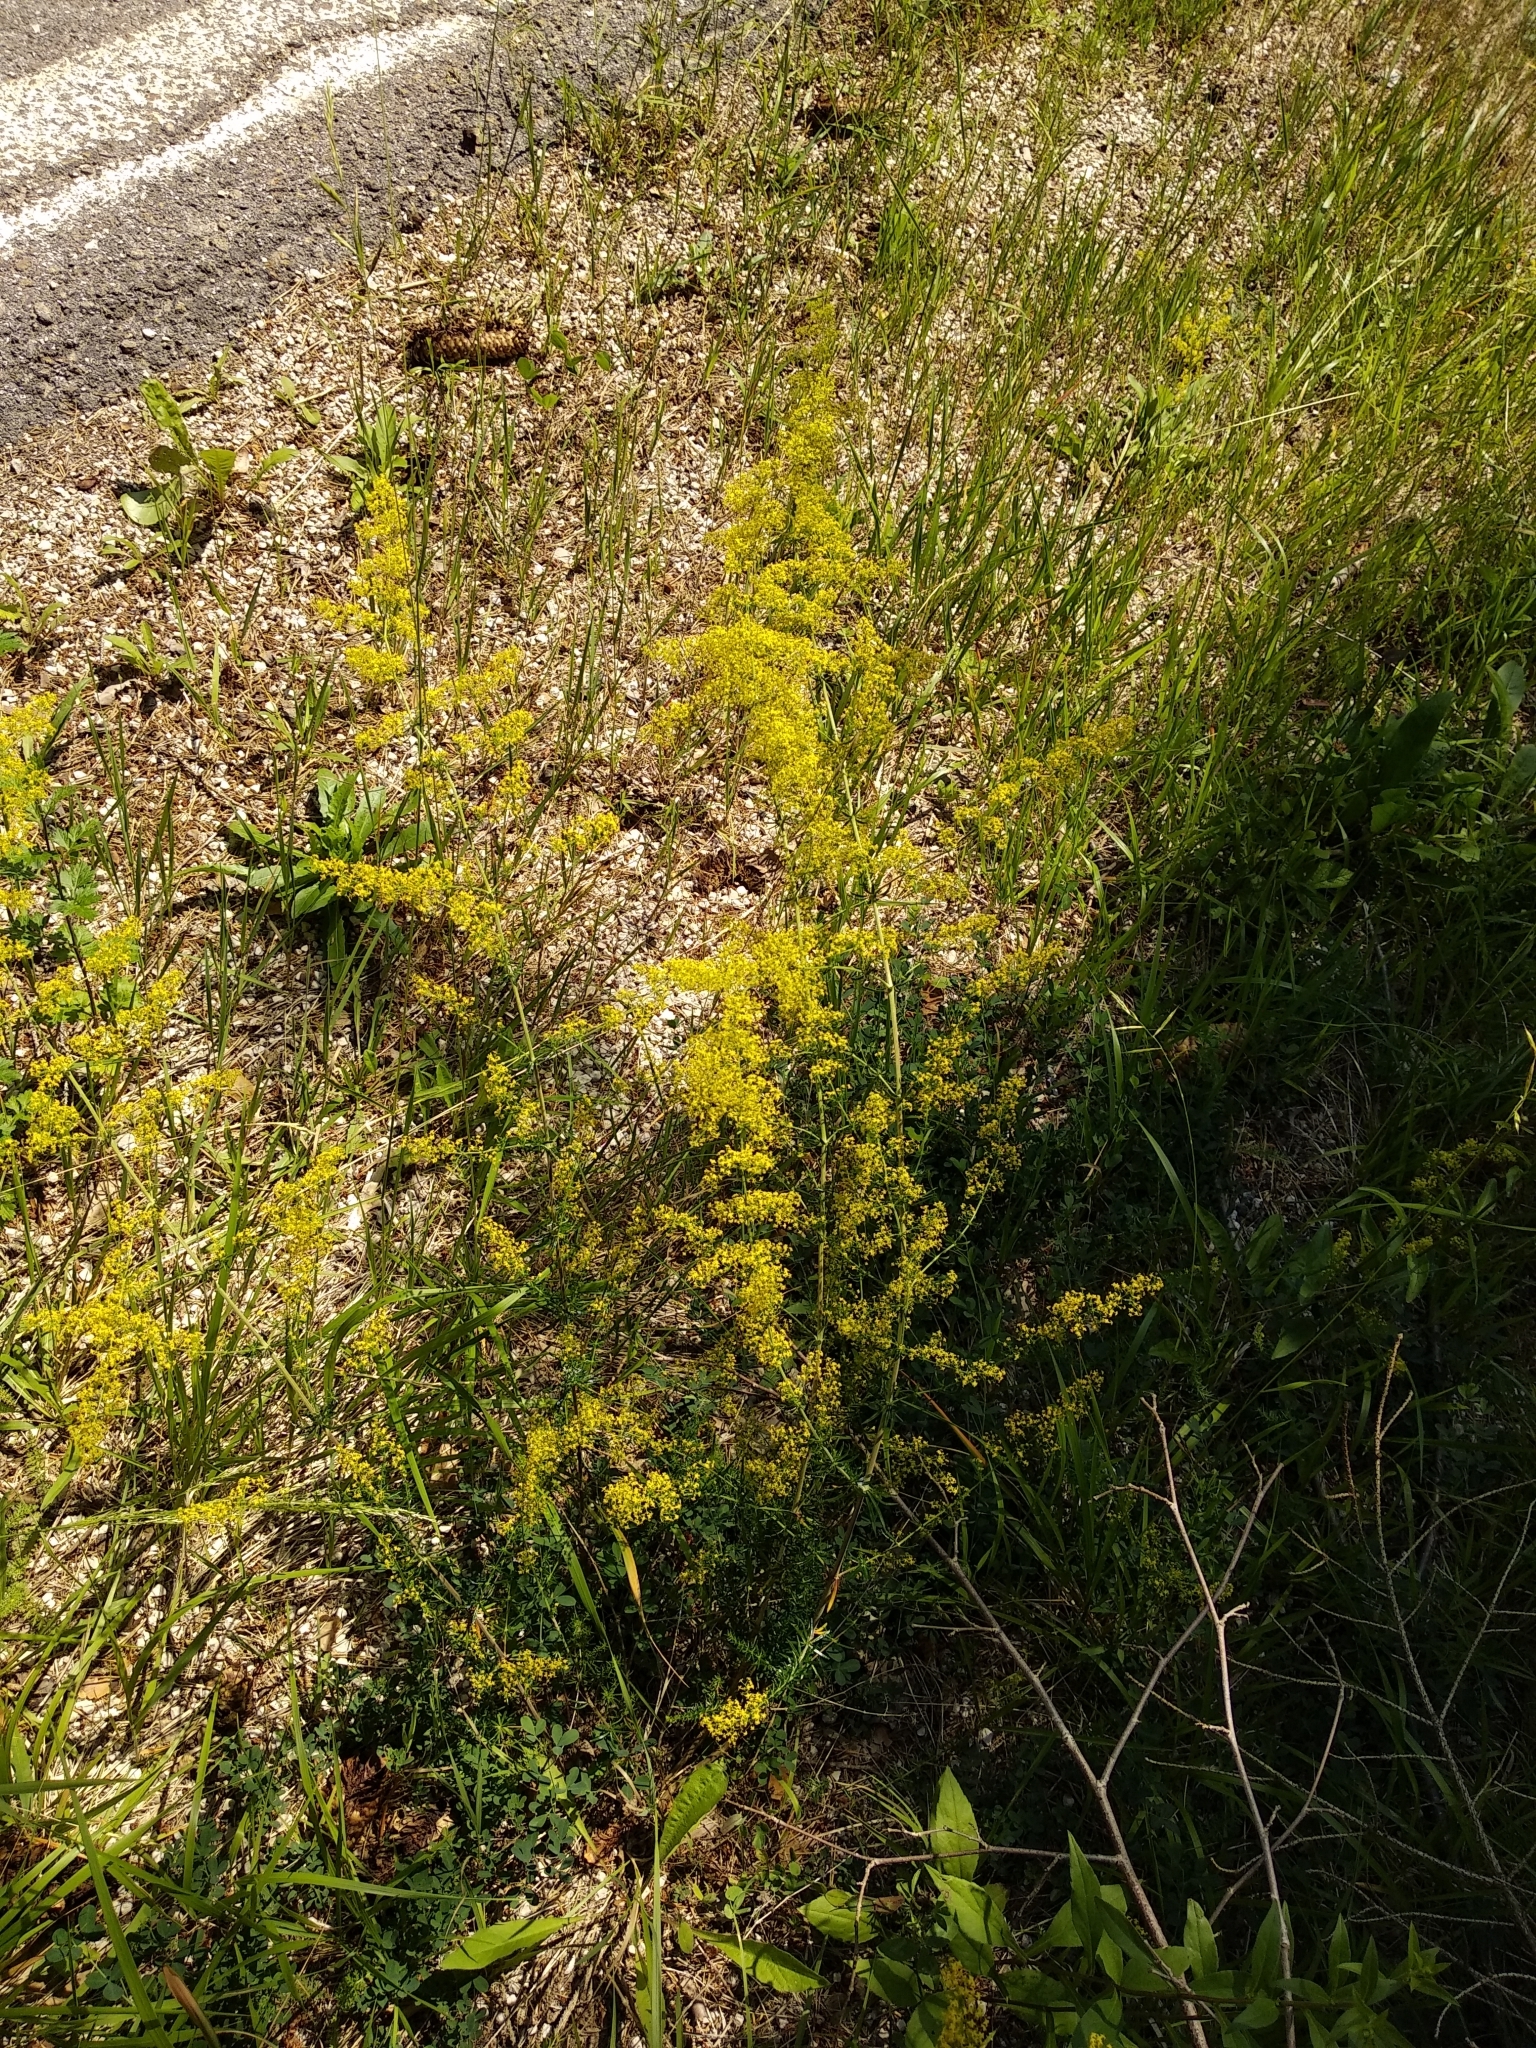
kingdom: Plantae
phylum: Tracheophyta
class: Magnoliopsida
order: Gentianales
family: Rubiaceae
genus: Galium
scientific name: Galium verum
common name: Lady's bedstraw
